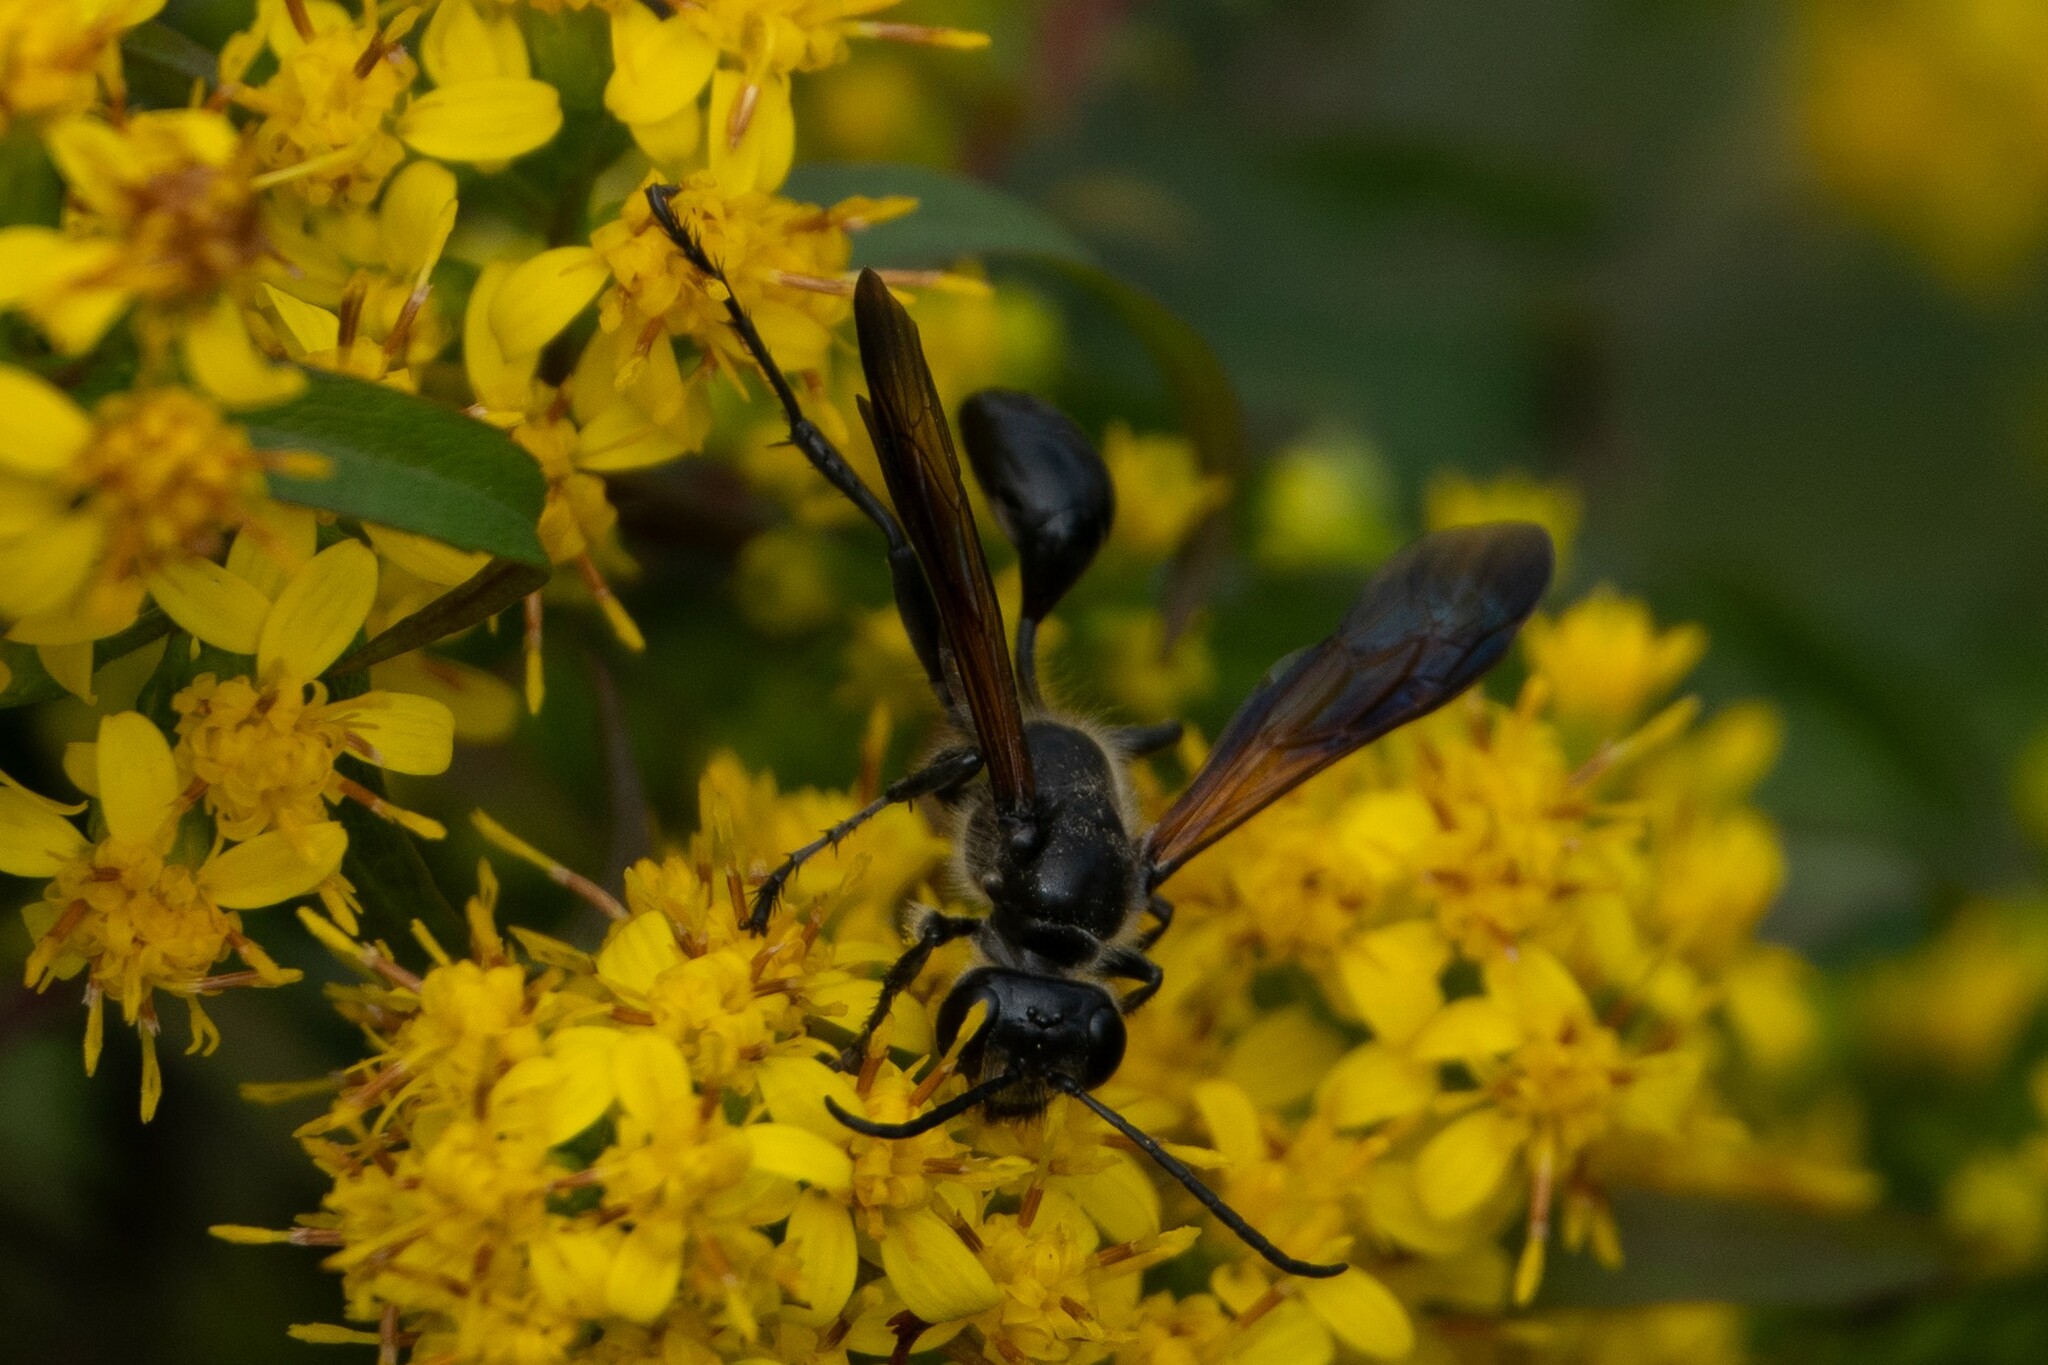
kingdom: Animalia
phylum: Arthropoda
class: Insecta
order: Hymenoptera
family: Sphecidae
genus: Isodontia
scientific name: Isodontia mexicana
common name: Mud dauber
